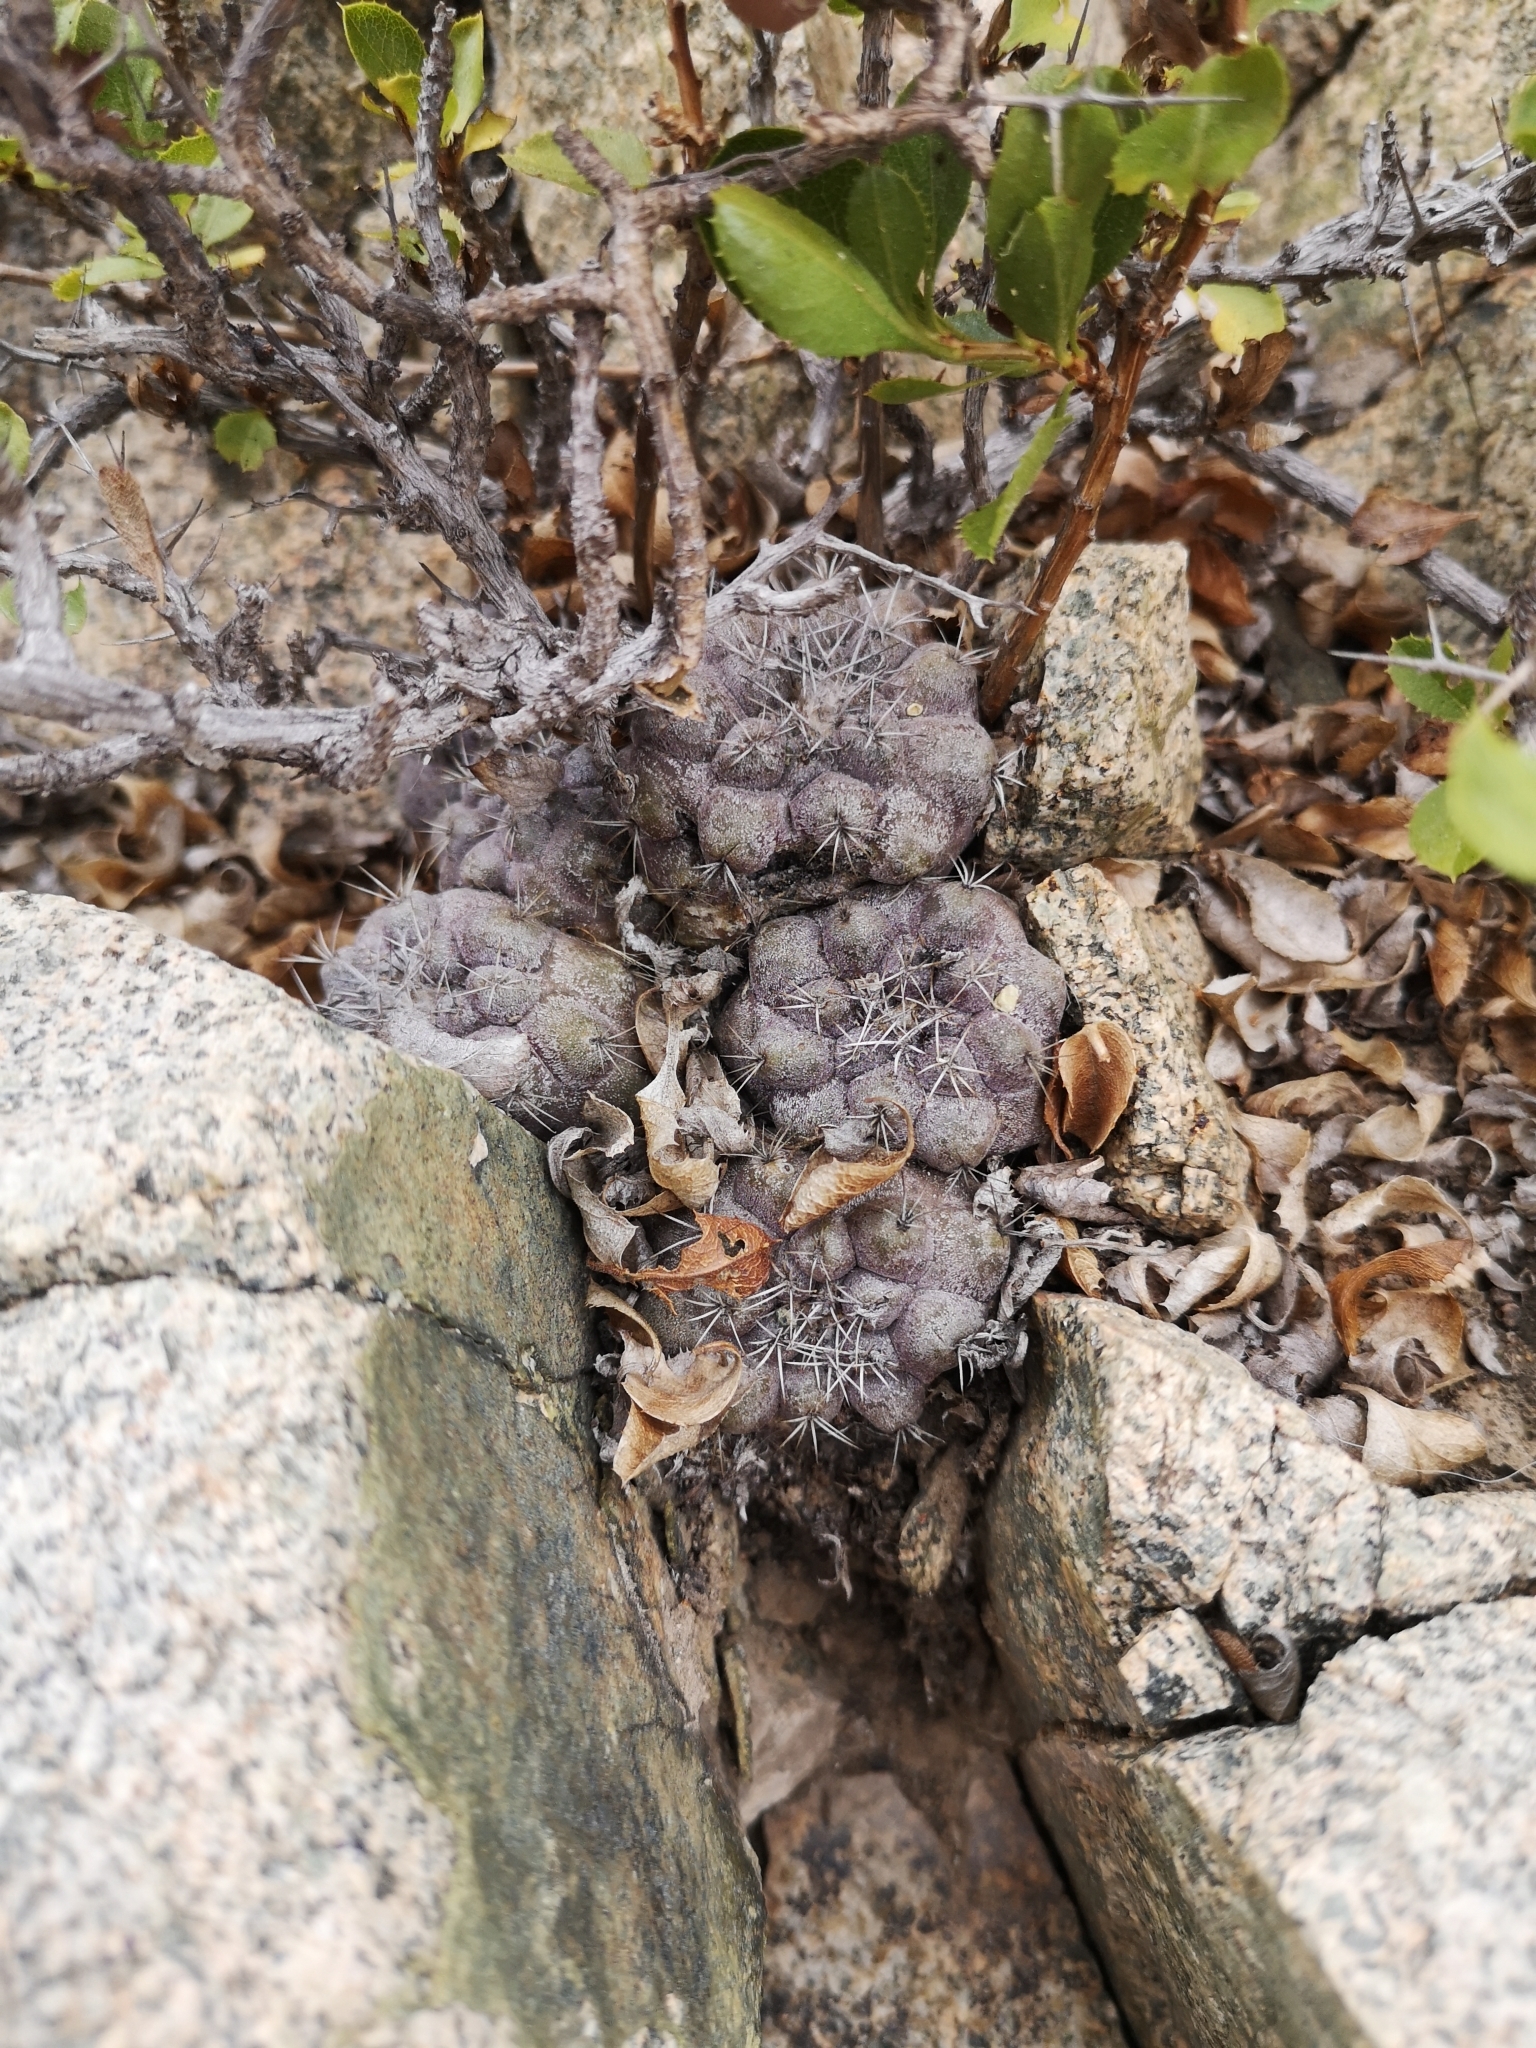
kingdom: Plantae
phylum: Tracheophyta
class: Magnoliopsida
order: Caryophyllales
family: Cactaceae
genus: Copiapoa
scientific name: Copiapoa humilis
